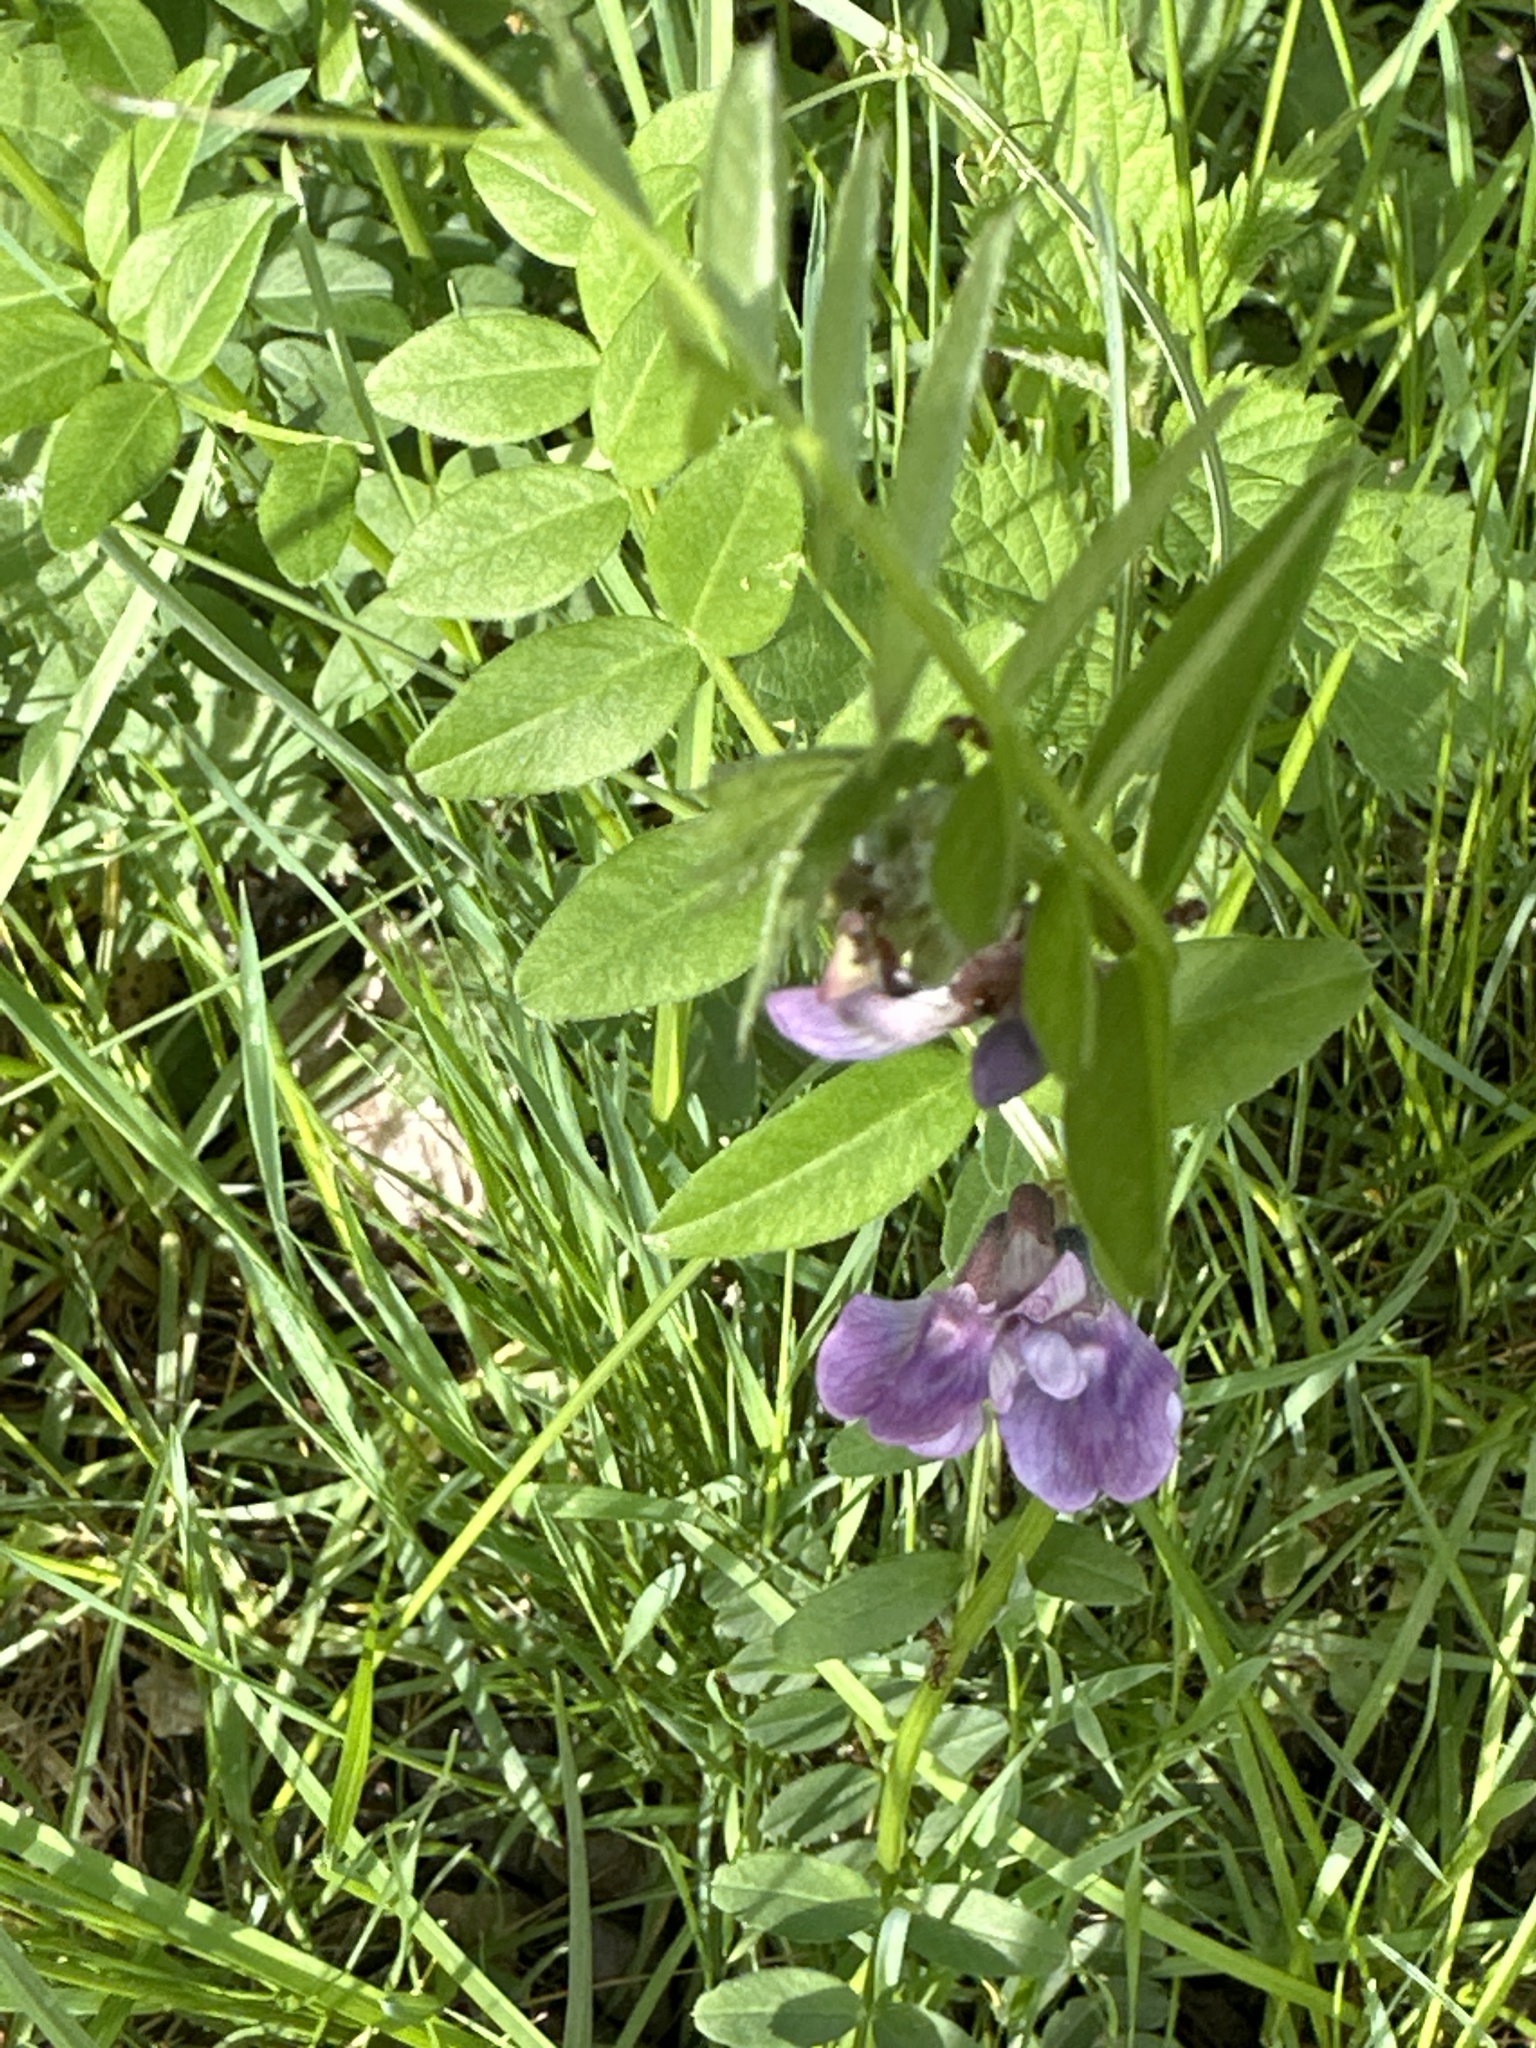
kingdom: Plantae
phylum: Tracheophyta
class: Magnoliopsida
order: Fabales
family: Fabaceae
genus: Vicia
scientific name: Vicia sepium
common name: Bush vetch
